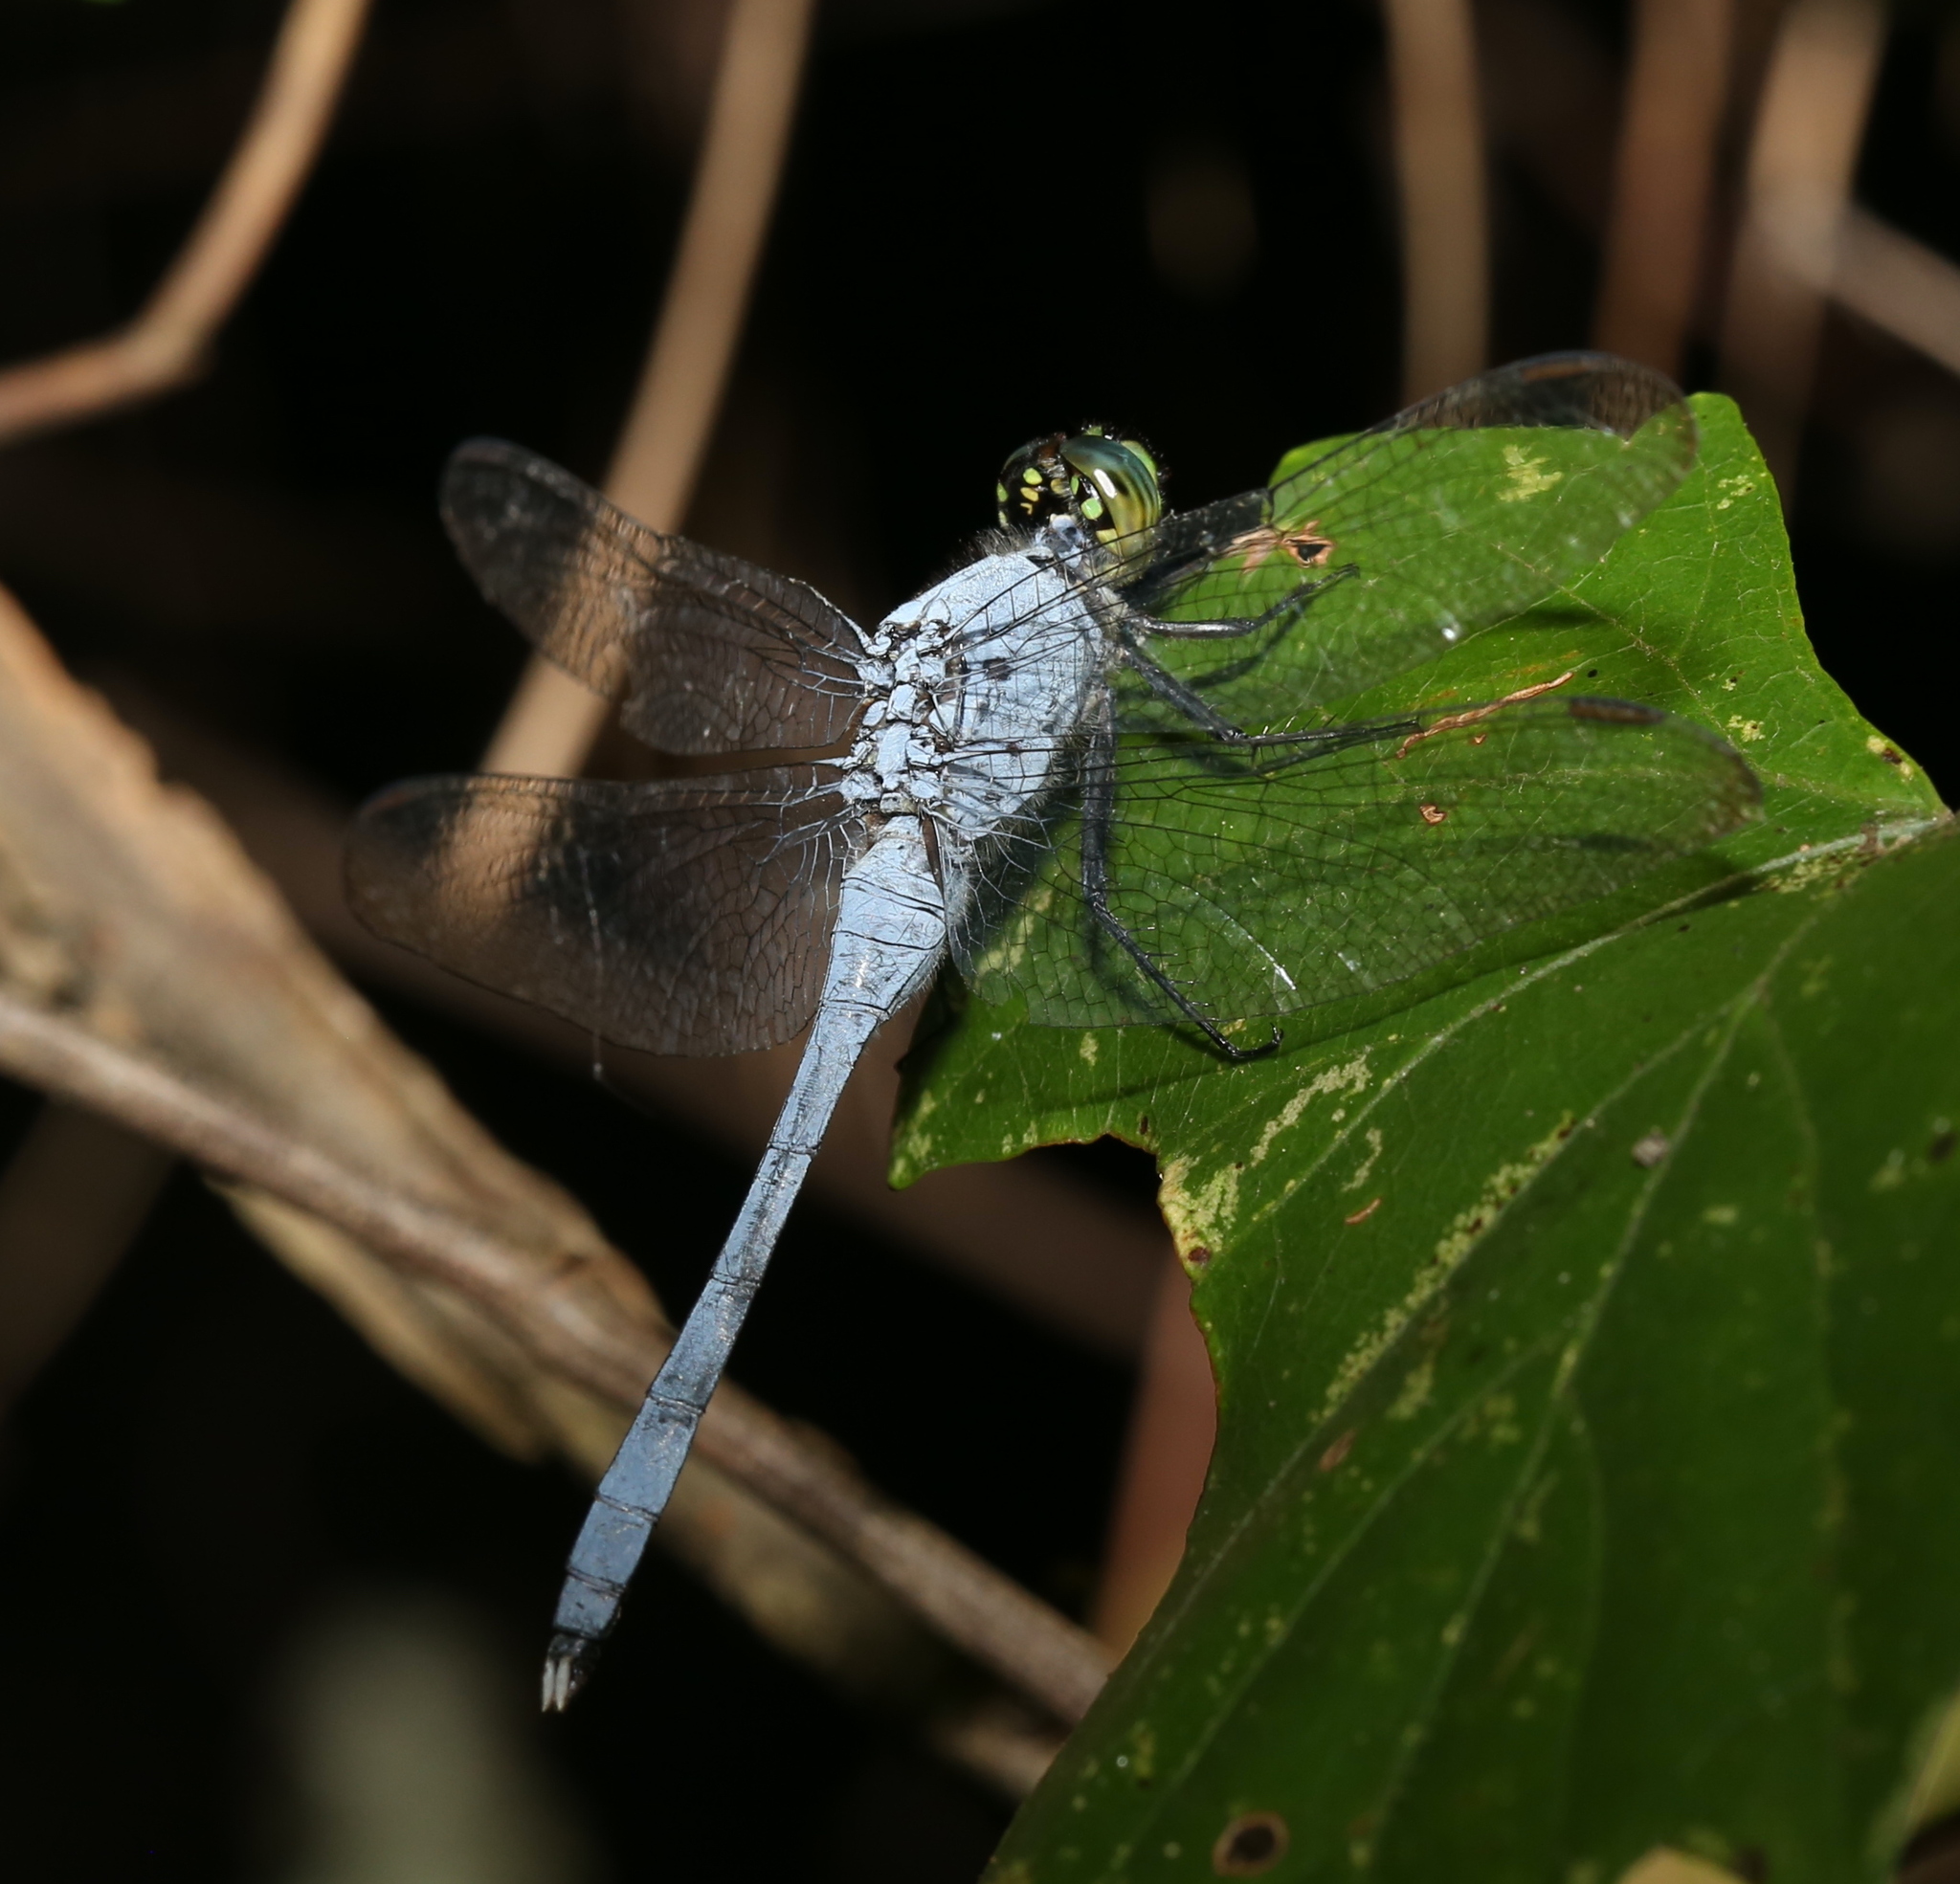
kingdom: Animalia
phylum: Arthropoda
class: Insecta
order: Odonata
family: Libellulidae
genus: Erythemis
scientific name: Erythemis simplicicollis
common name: Eastern pondhawk
